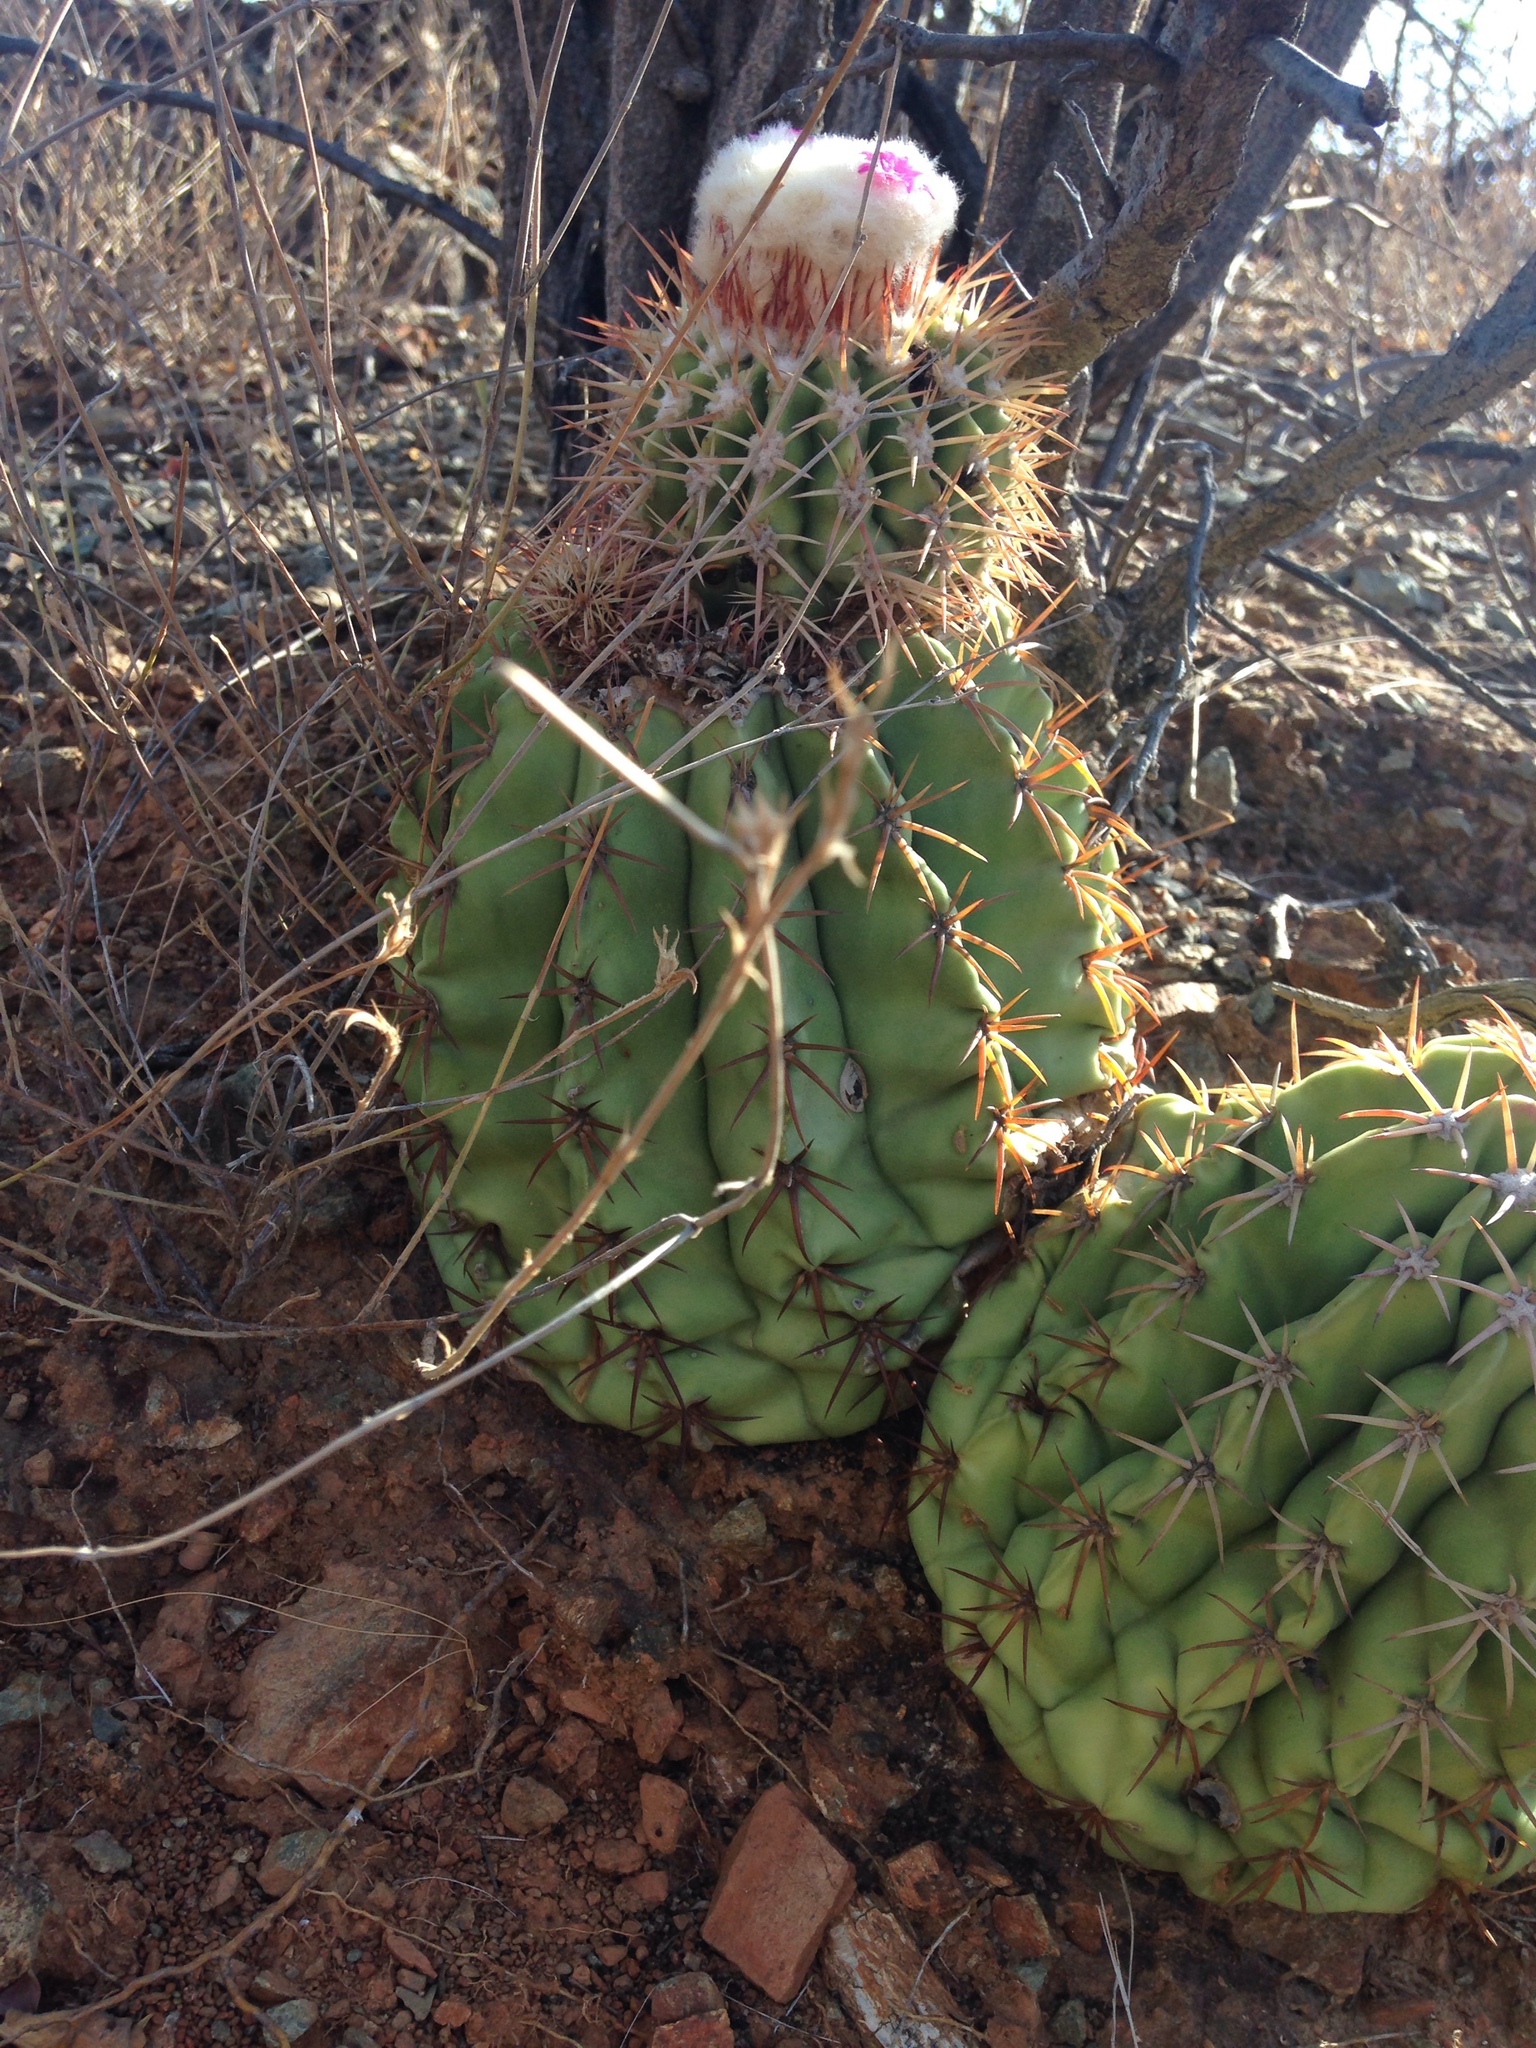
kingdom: Plantae
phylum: Tracheophyta
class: Magnoliopsida
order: Caryophyllales
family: Cactaceae
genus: Melocactus
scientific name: Melocactus curvispinus
